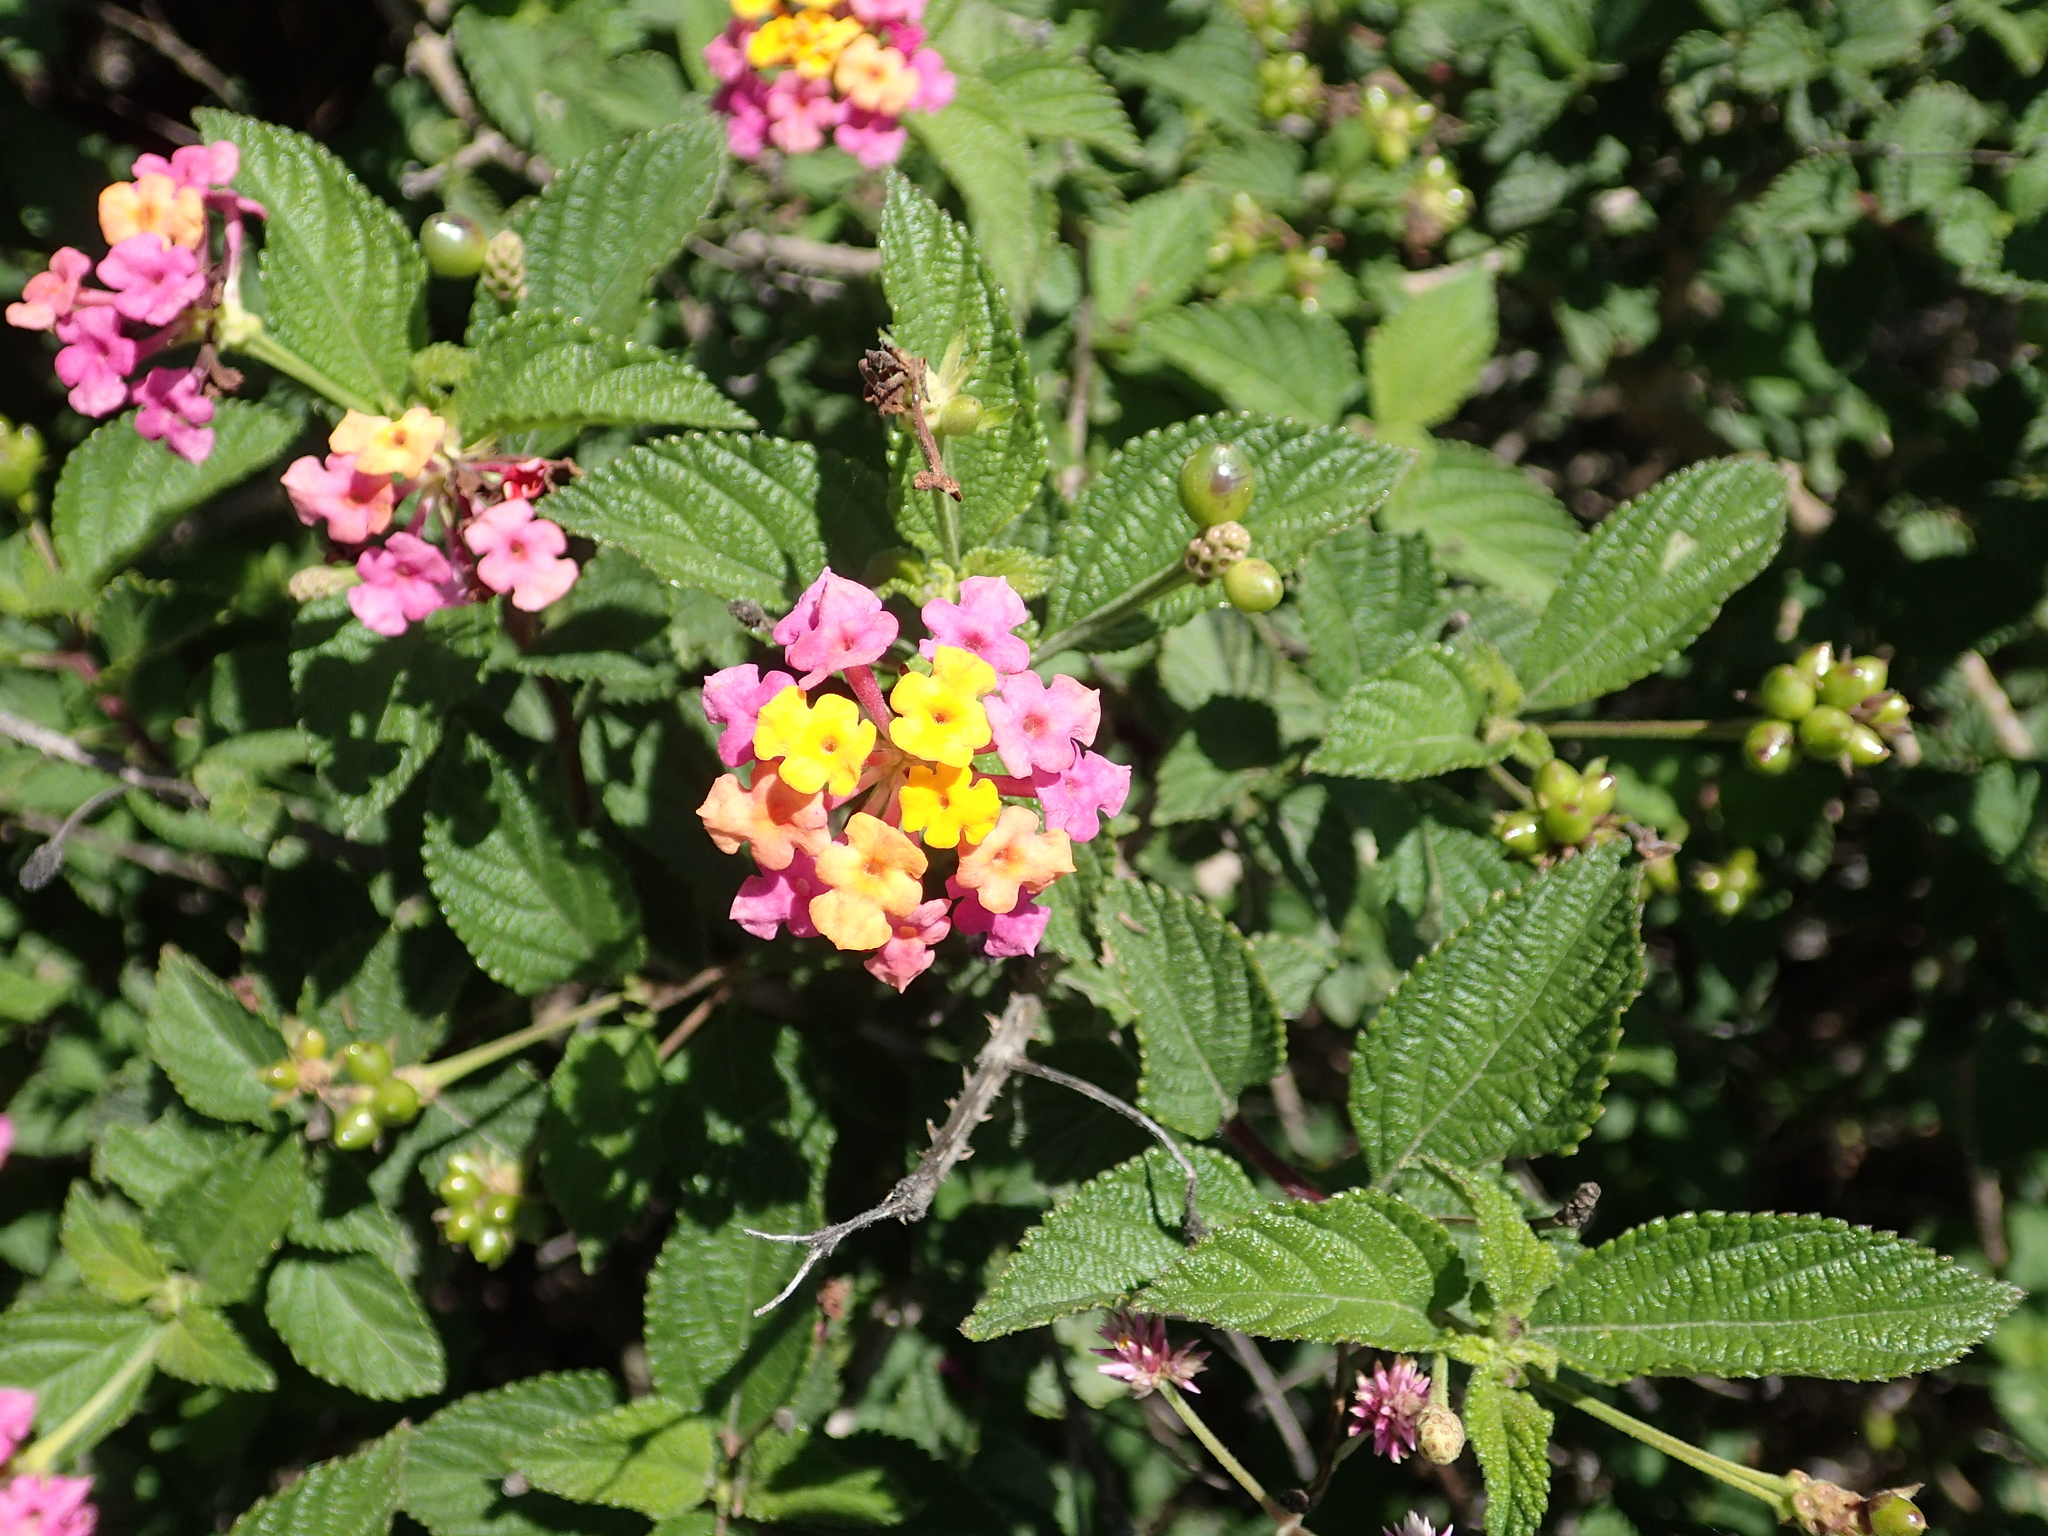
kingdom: Plantae
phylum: Tracheophyta
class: Magnoliopsida
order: Lamiales
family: Verbenaceae
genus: Lantana
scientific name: Lantana camara
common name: Lantana
